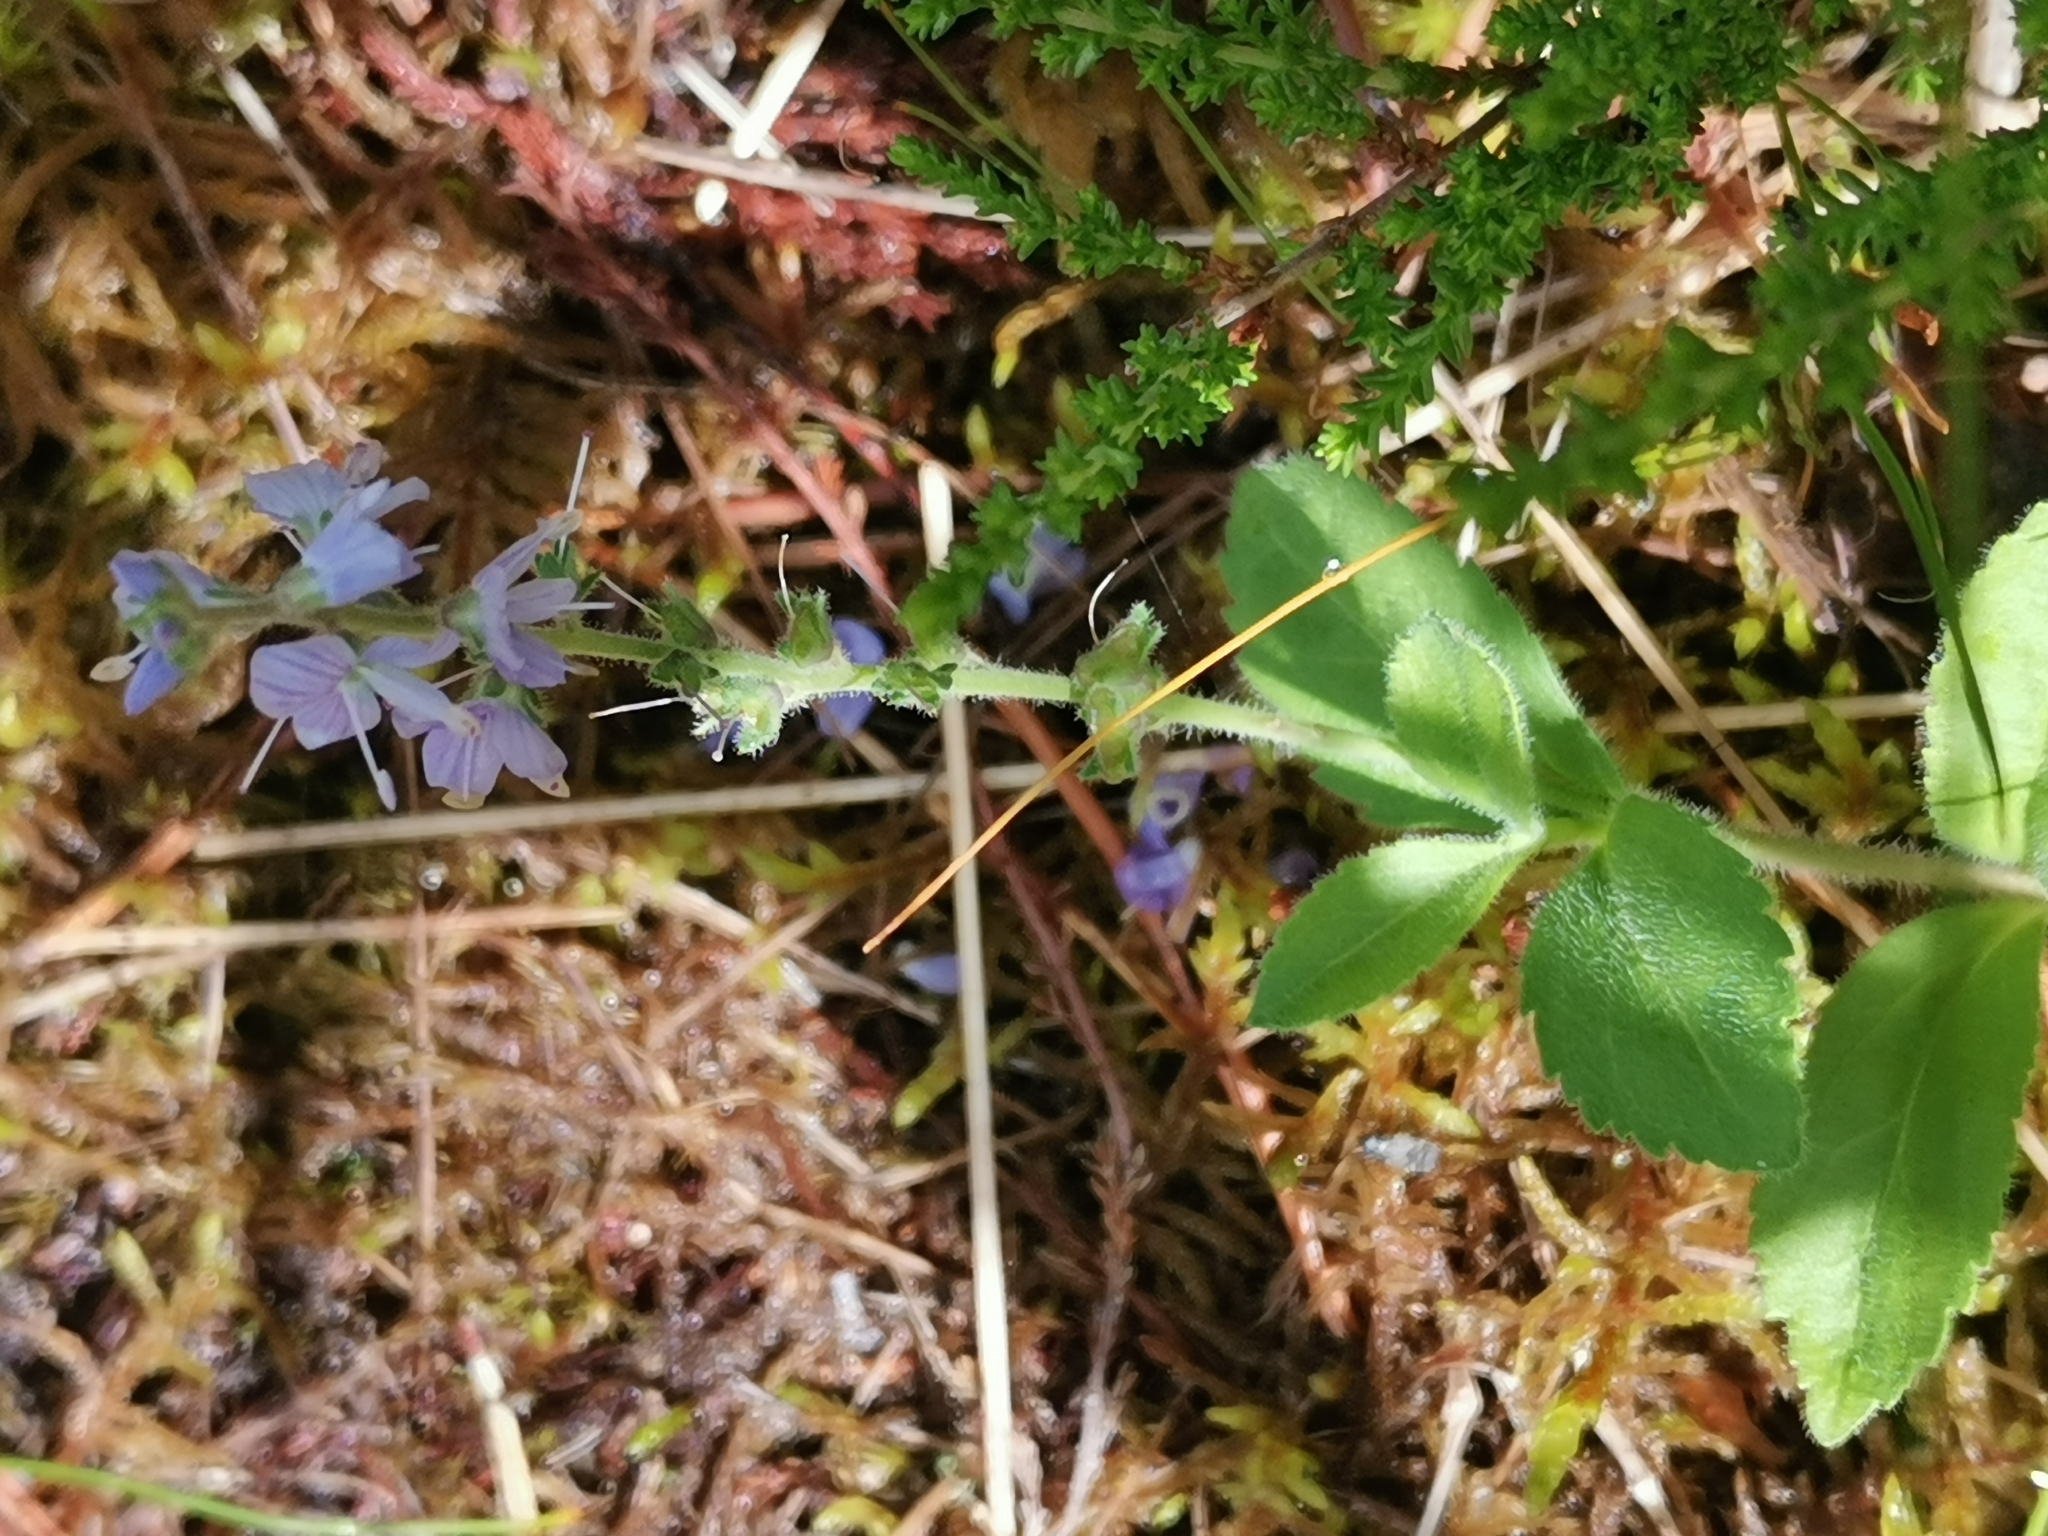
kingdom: Plantae
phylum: Tracheophyta
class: Magnoliopsida
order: Lamiales
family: Plantaginaceae
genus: Veronica
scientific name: Veronica officinalis
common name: Common speedwell
